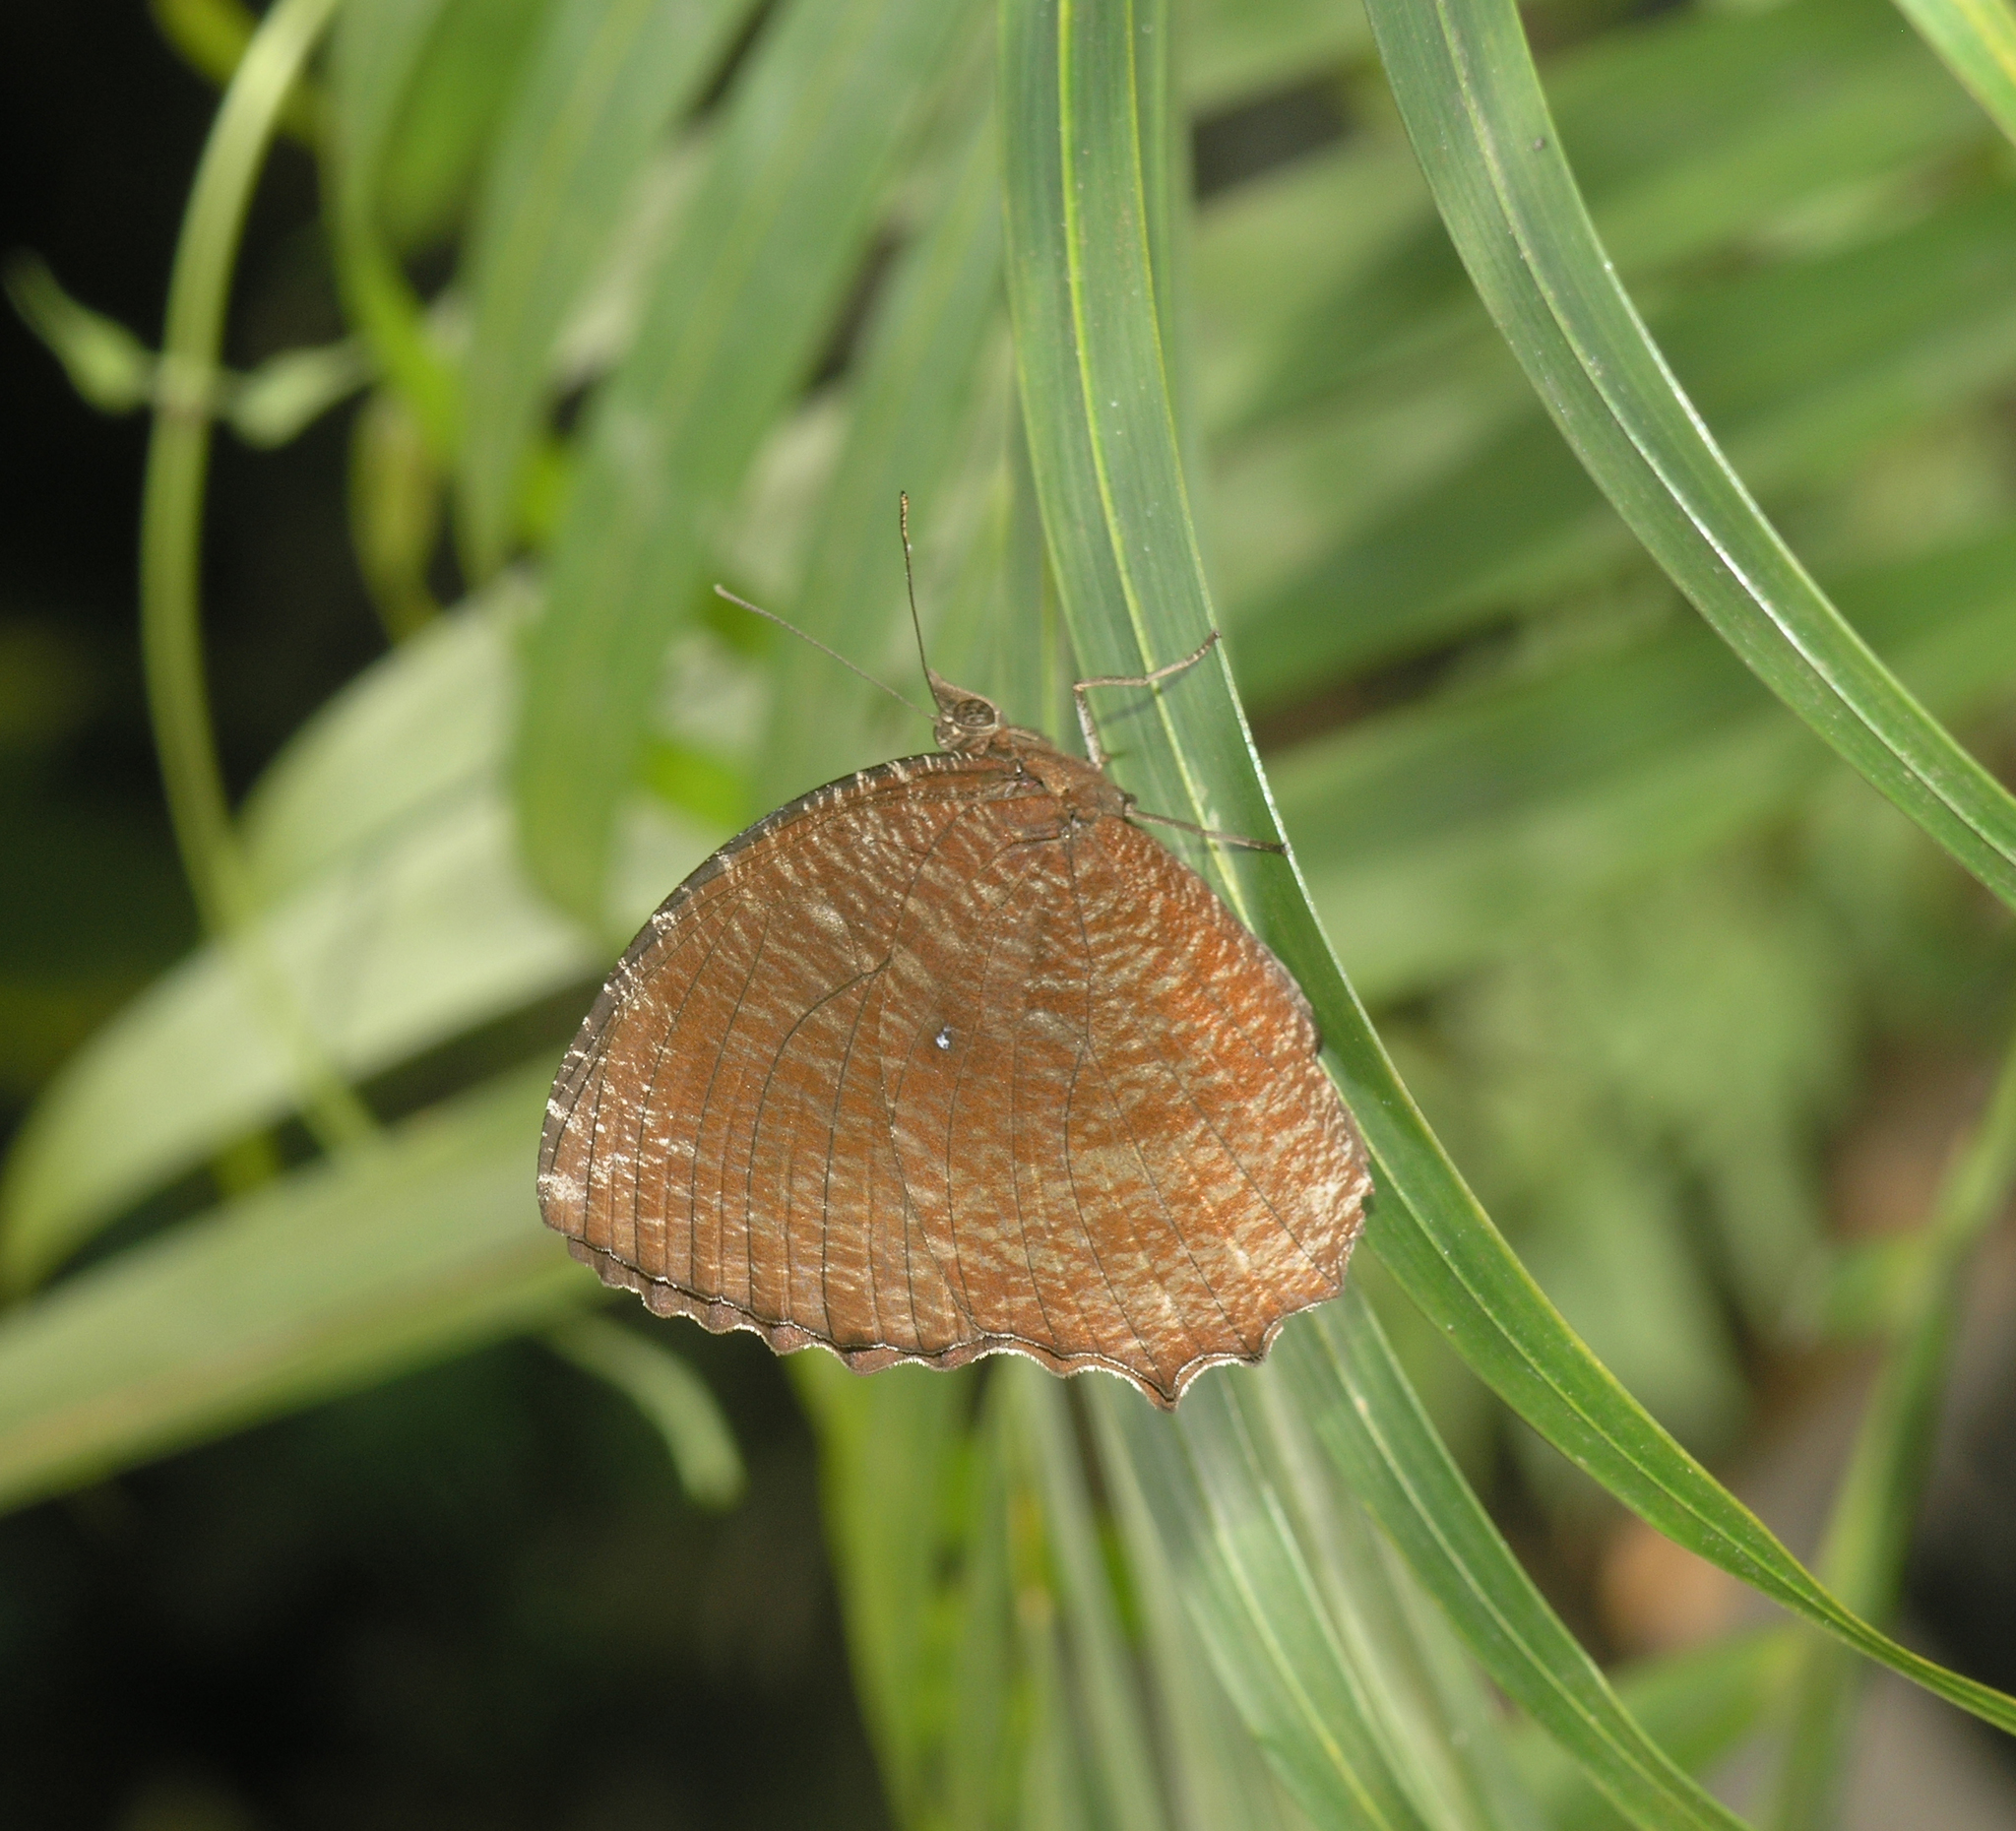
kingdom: Animalia
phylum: Arthropoda
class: Insecta
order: Lepidoptera
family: Nymphalidae
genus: Elymnias
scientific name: Elymnias hypermnestra
